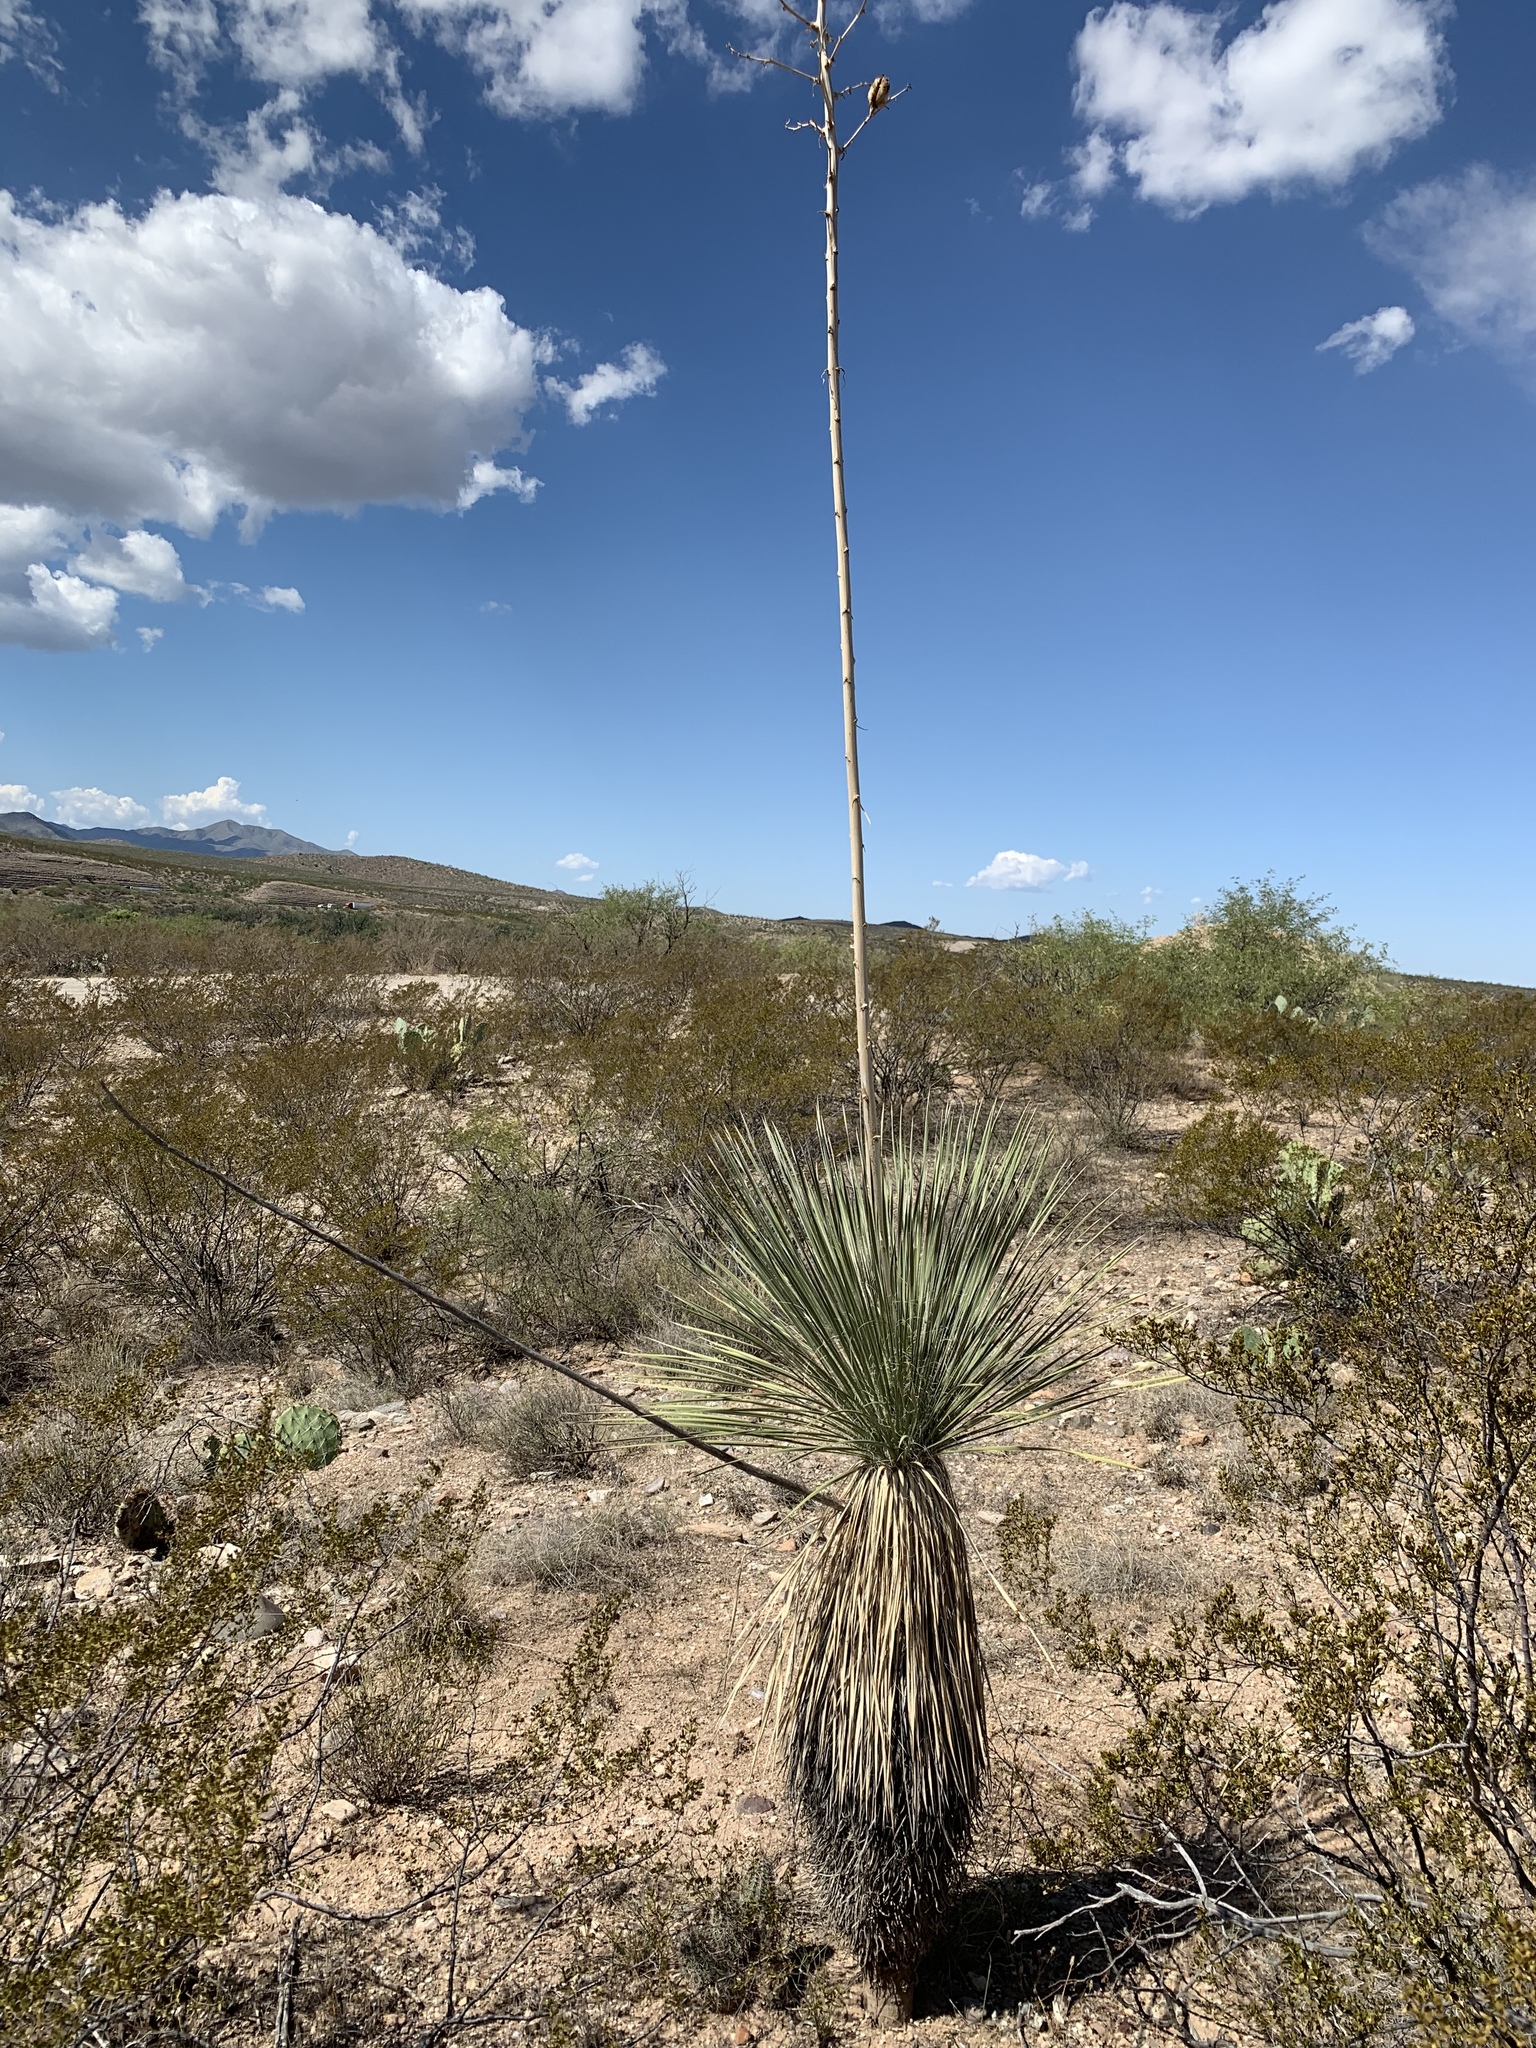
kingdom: Plantae
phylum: Tracheophyta
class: Liliopsida
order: Asparagales
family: Asparagaceae
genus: Yucca
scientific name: Yucca elata
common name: Palmella
